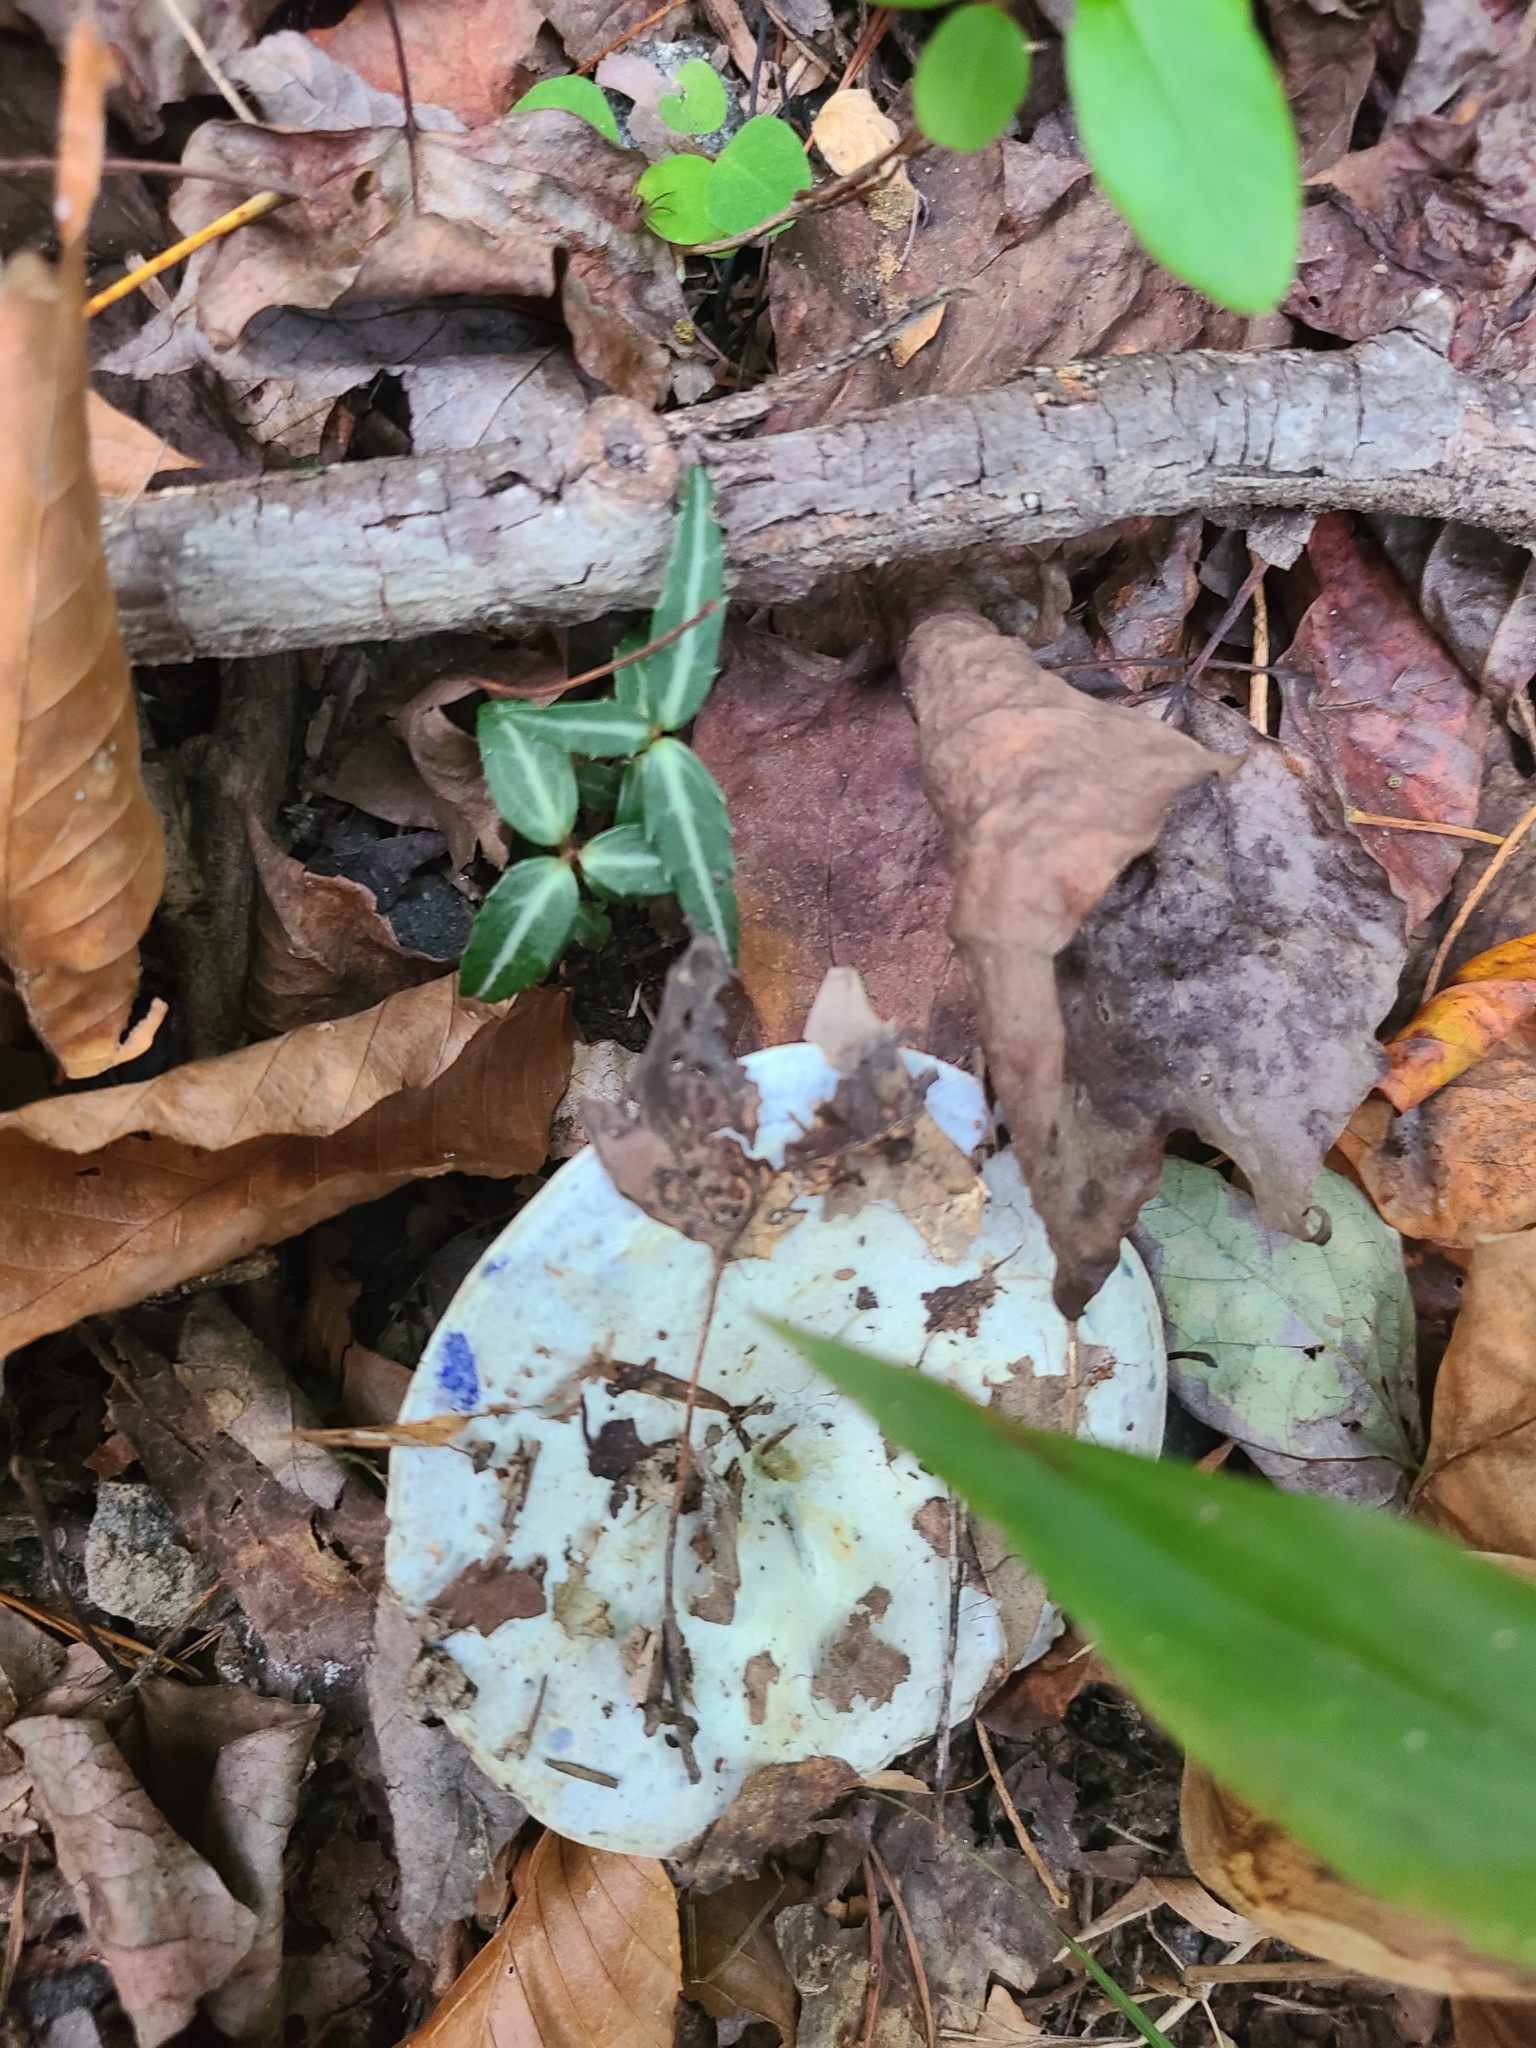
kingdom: Fungi
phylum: Basidiomycota
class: Agaricomycetes
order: Russulales
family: Russulaceae
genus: Lactarius
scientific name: Lactarius indigo
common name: Indigo milk cap
